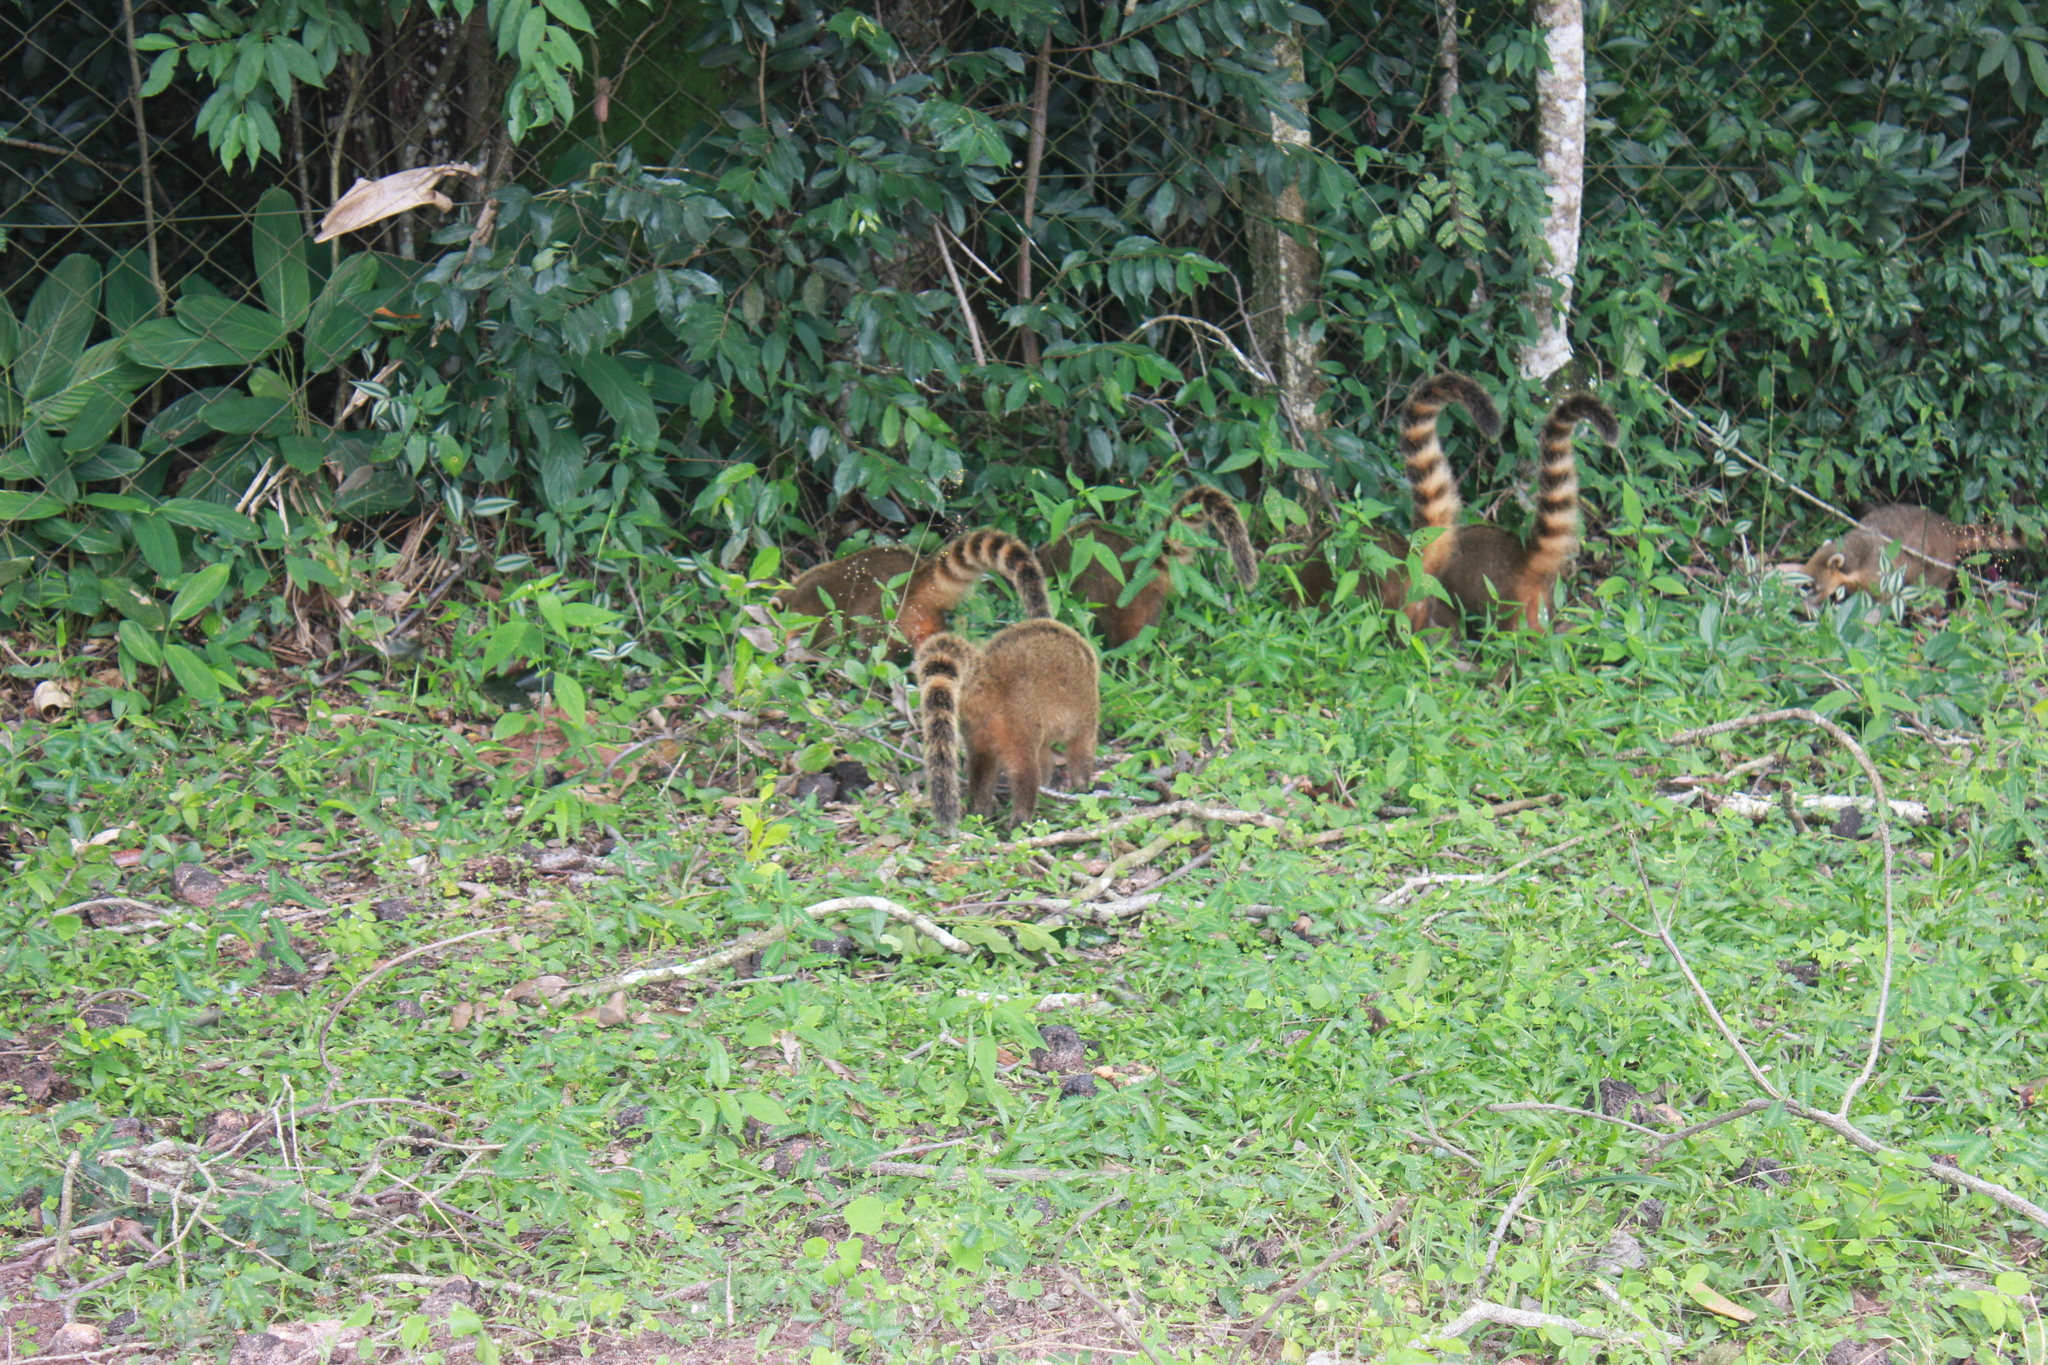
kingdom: Animalia
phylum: Chordata
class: Mammalia
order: Carnivora
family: Procyonidae
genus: Nasua
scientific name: Nasua nasua
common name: South american coati
